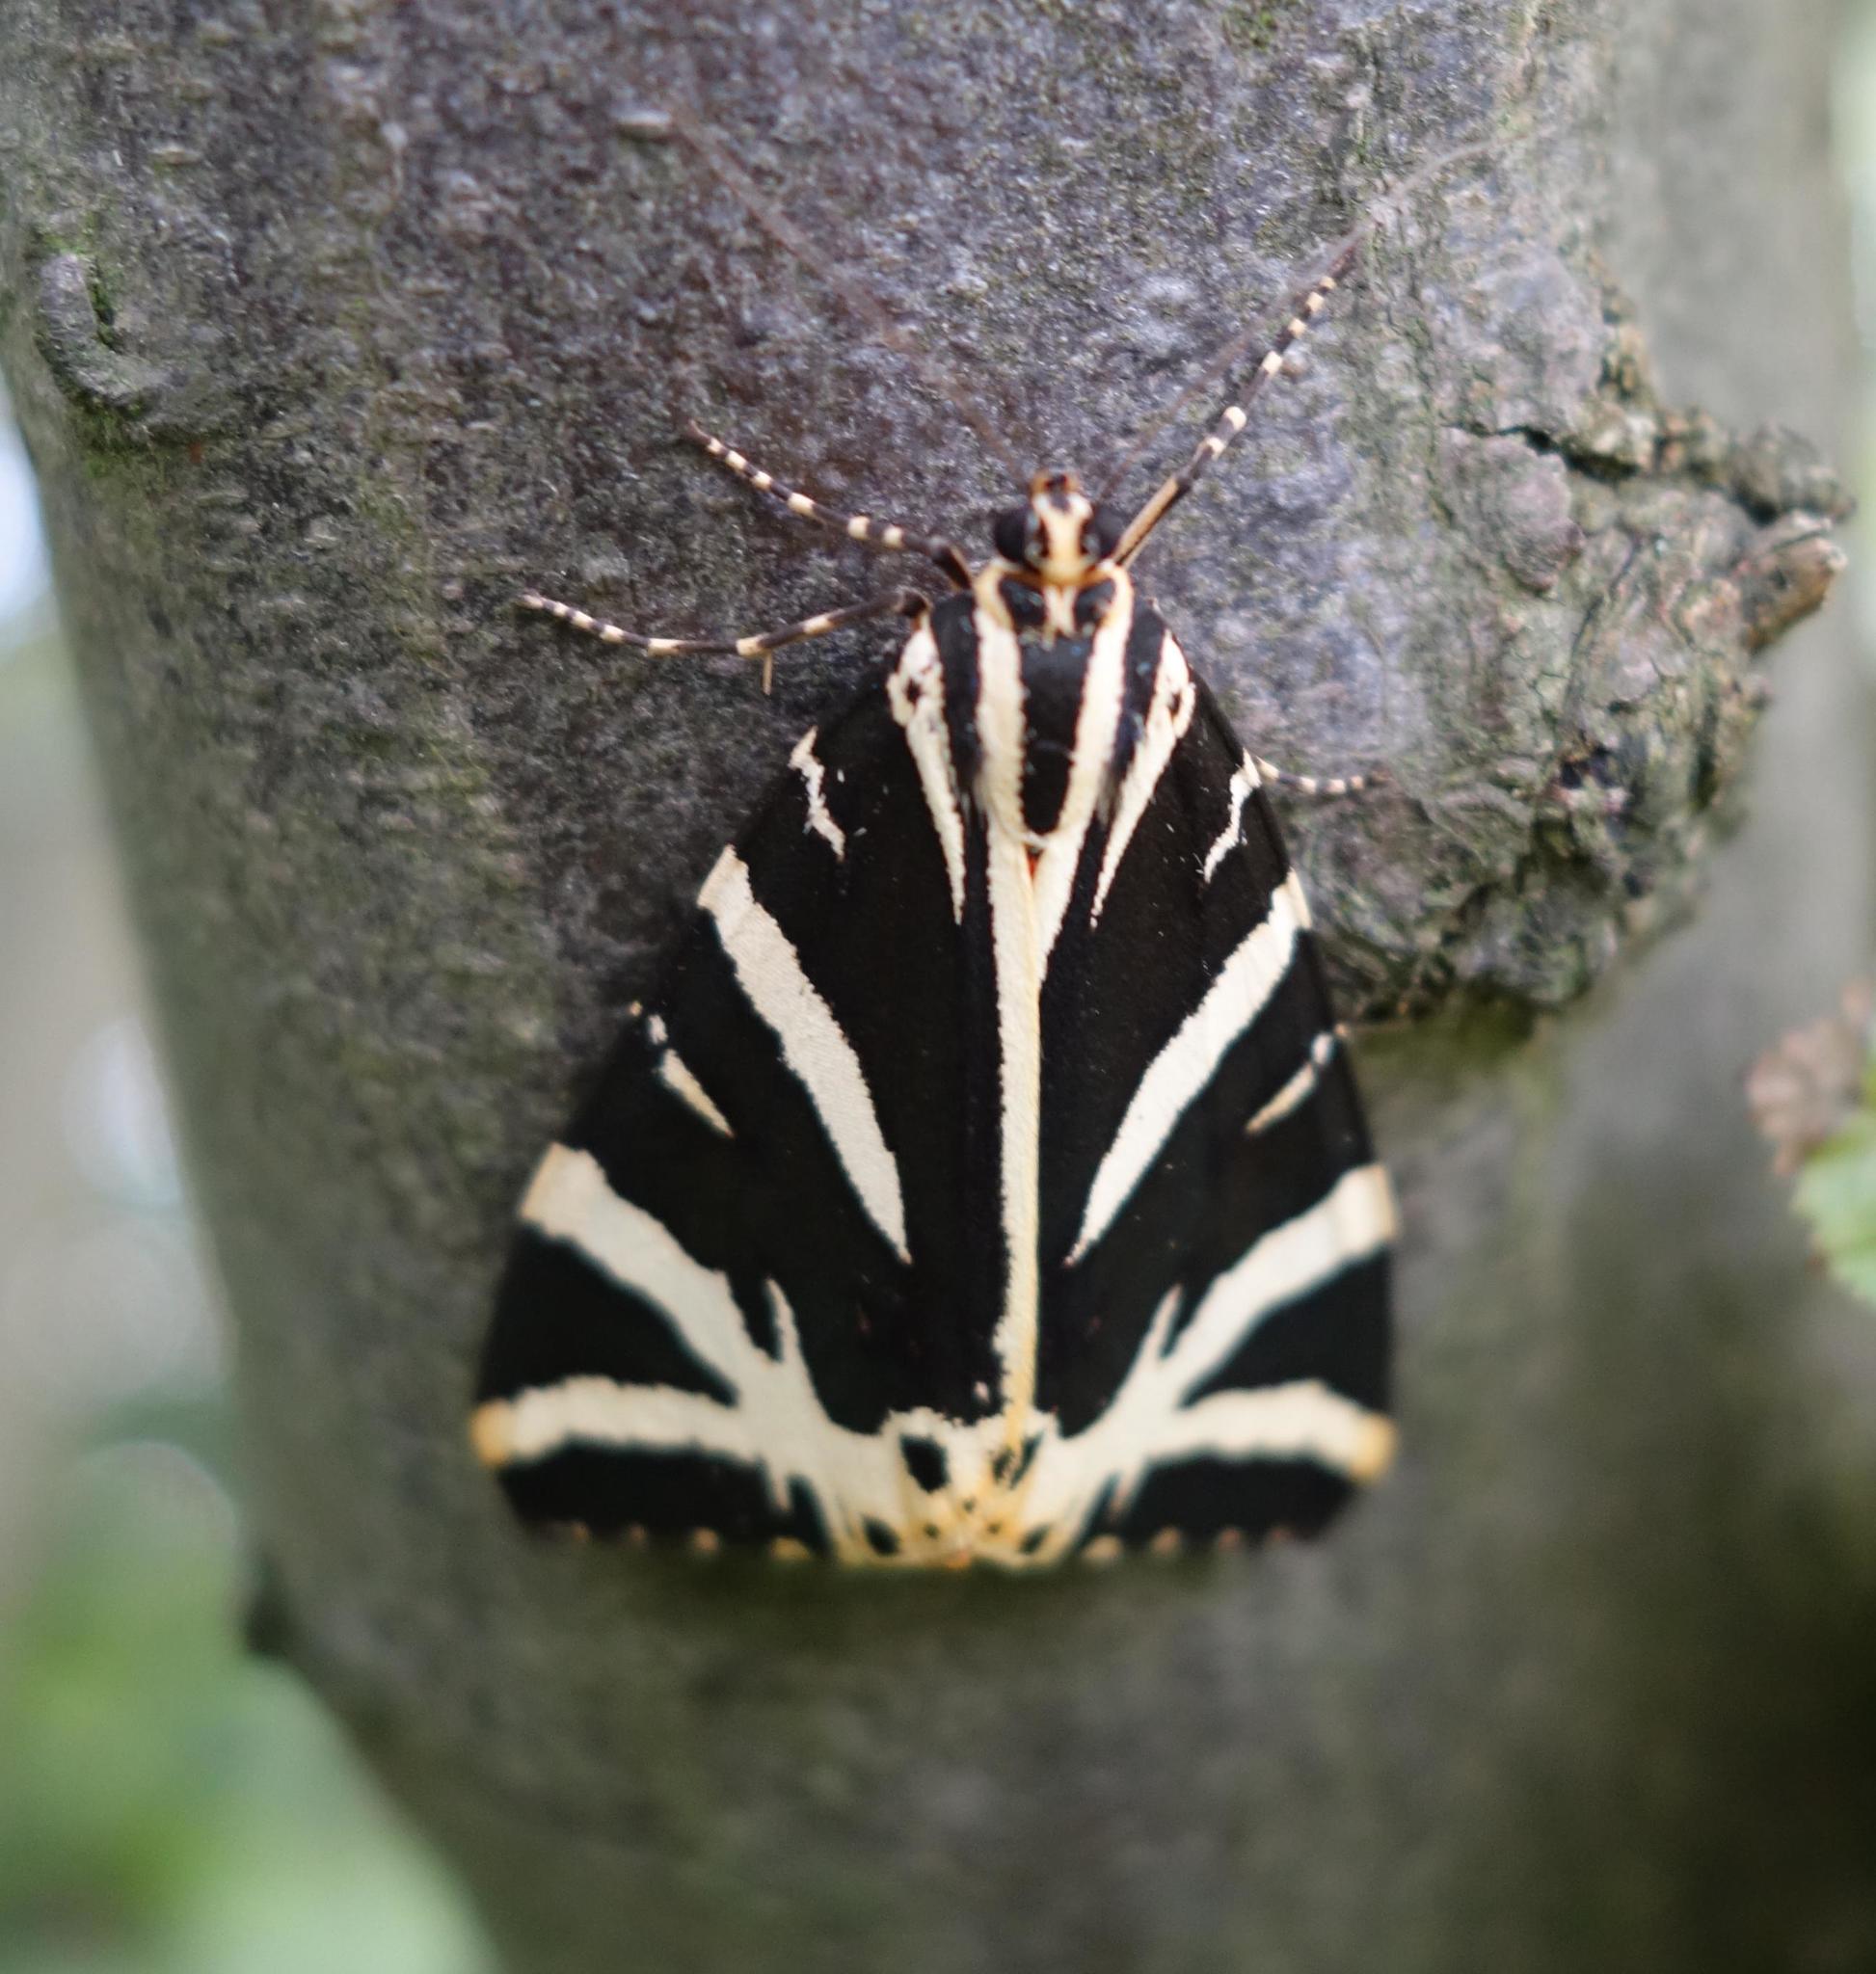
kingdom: Animalia
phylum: Arthropoda
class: Insecta
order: Lepidoptera
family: Erebidae
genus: Euplagia
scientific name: Euplagia quadripunctaria
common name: Jersey tiger
